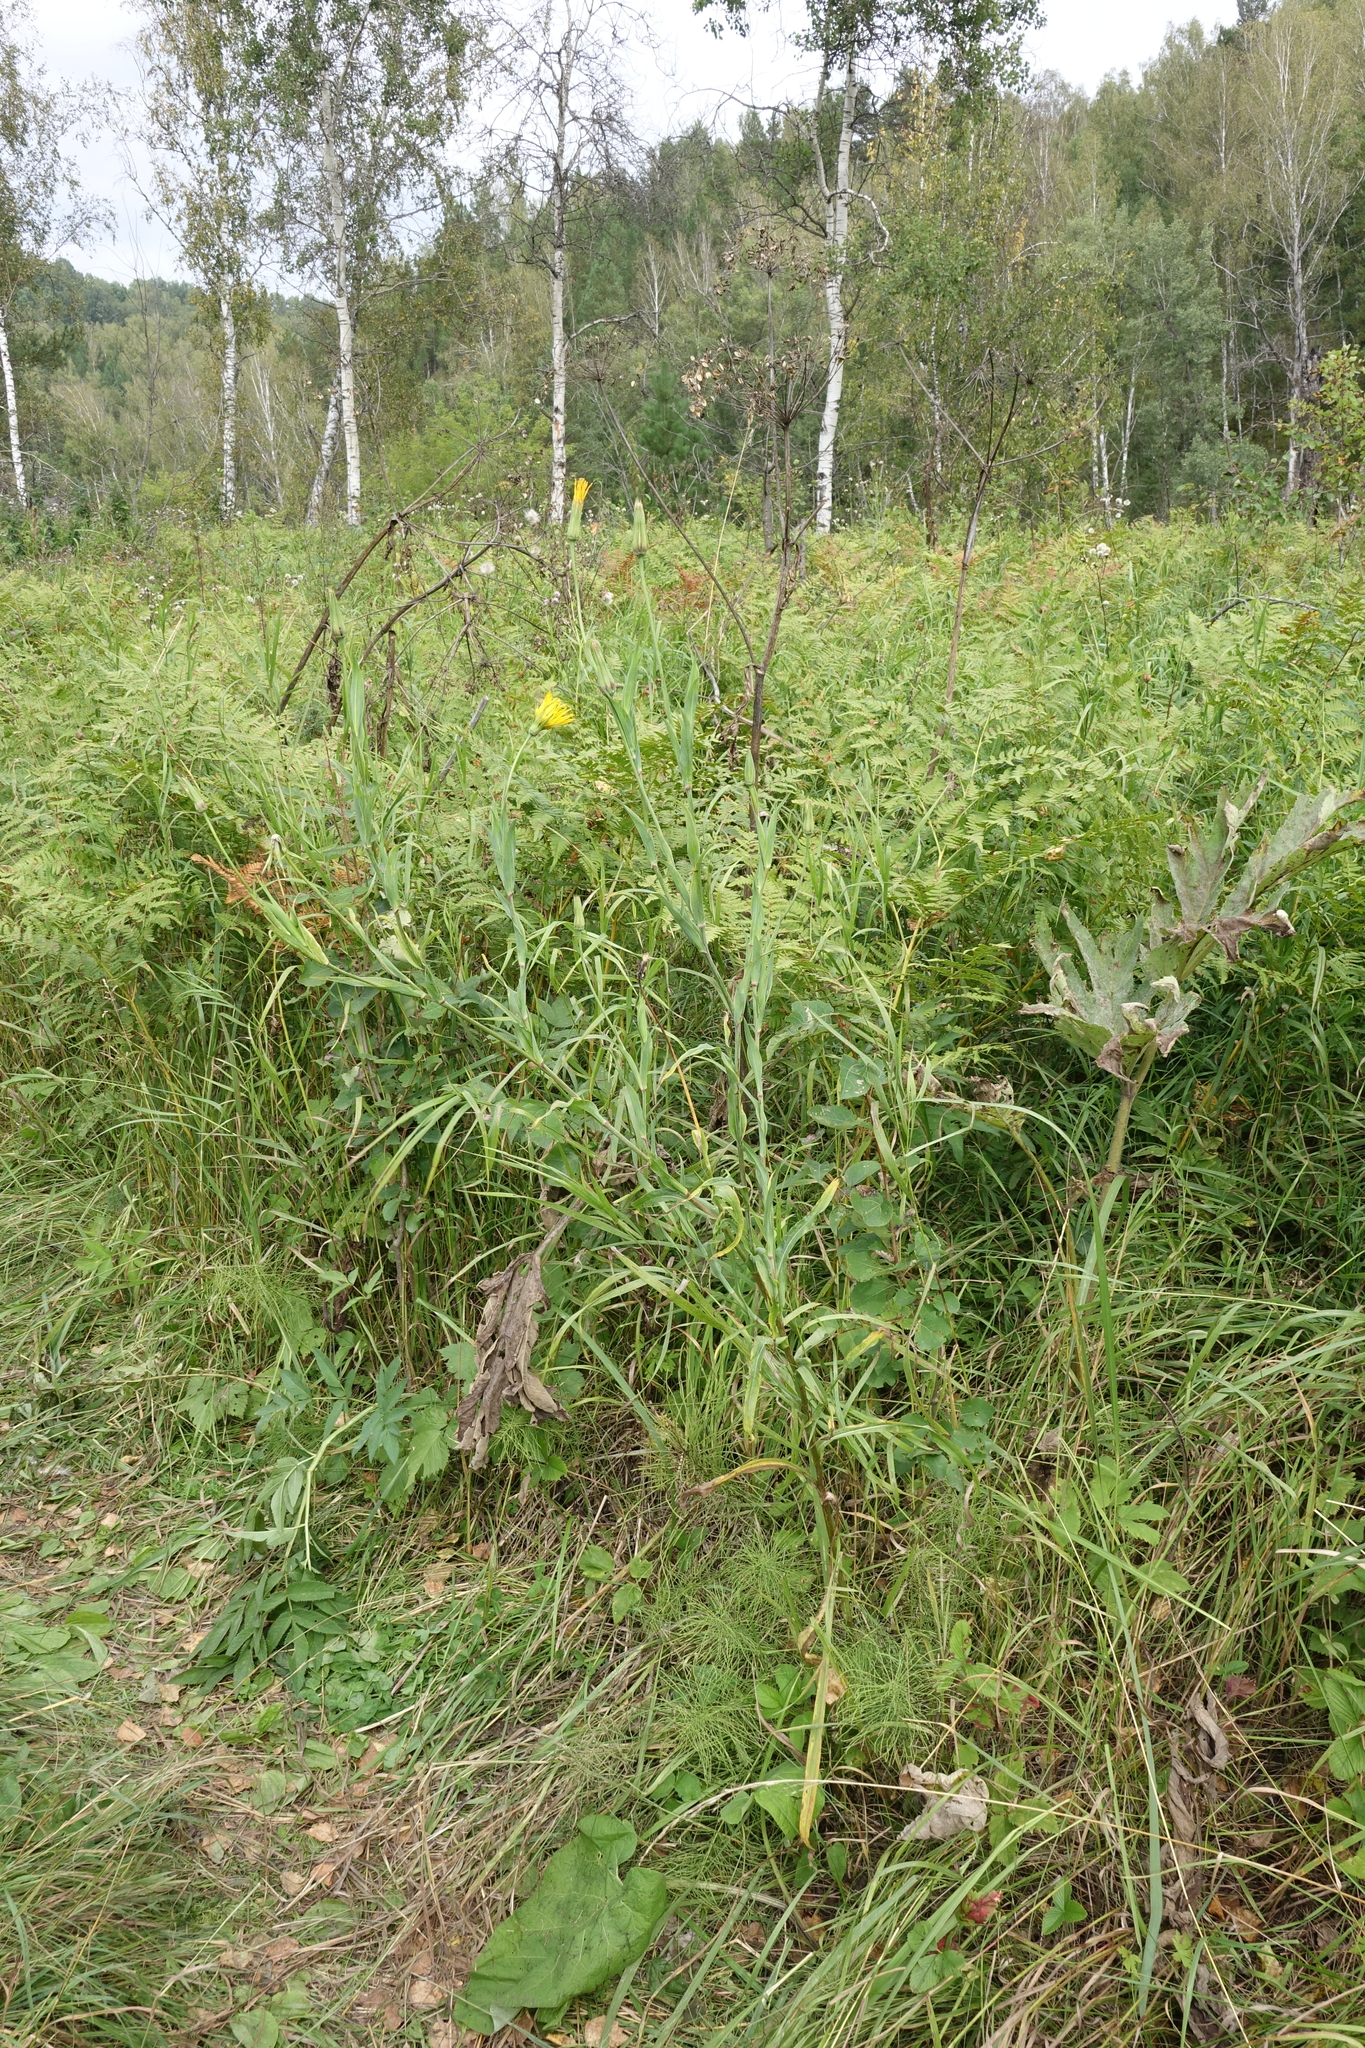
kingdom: Plantae
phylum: Tracheophyta
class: Magnoliopsida
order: Asterales
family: Asteraceae
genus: Tragopogon
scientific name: Tragopogon orientalis
